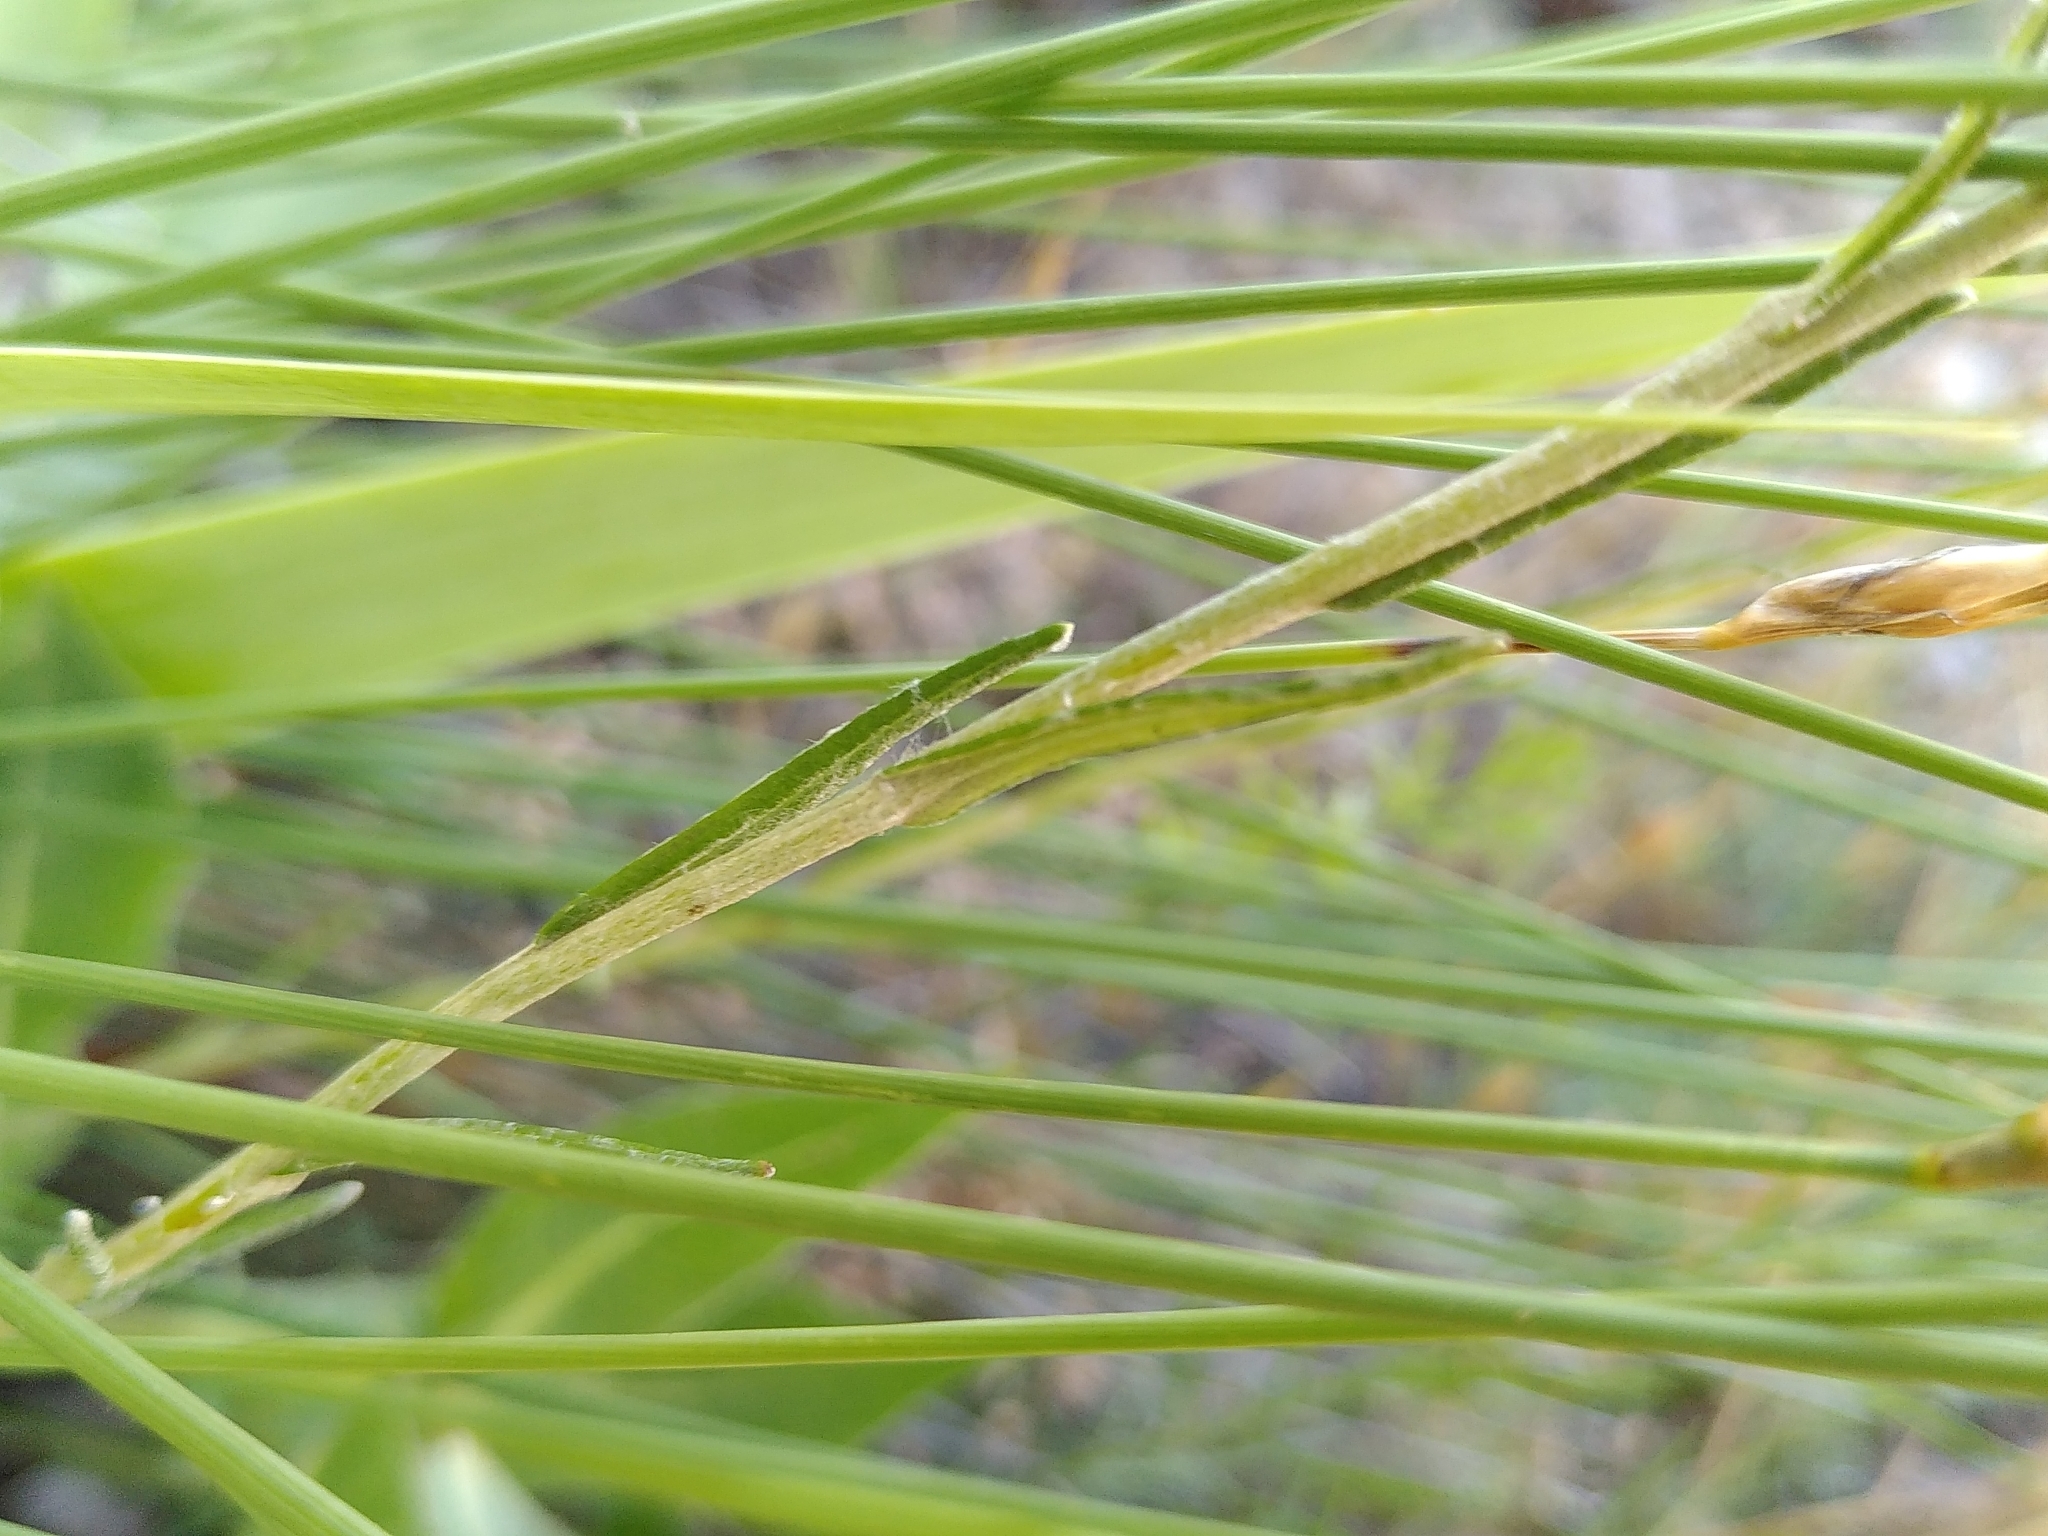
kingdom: Plantae
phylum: Tracheophyta
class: Magnoliopsida
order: Asterales
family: Asteraceae
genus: Helichrysum
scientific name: Helichrysum stoechas
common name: Goldilocks
